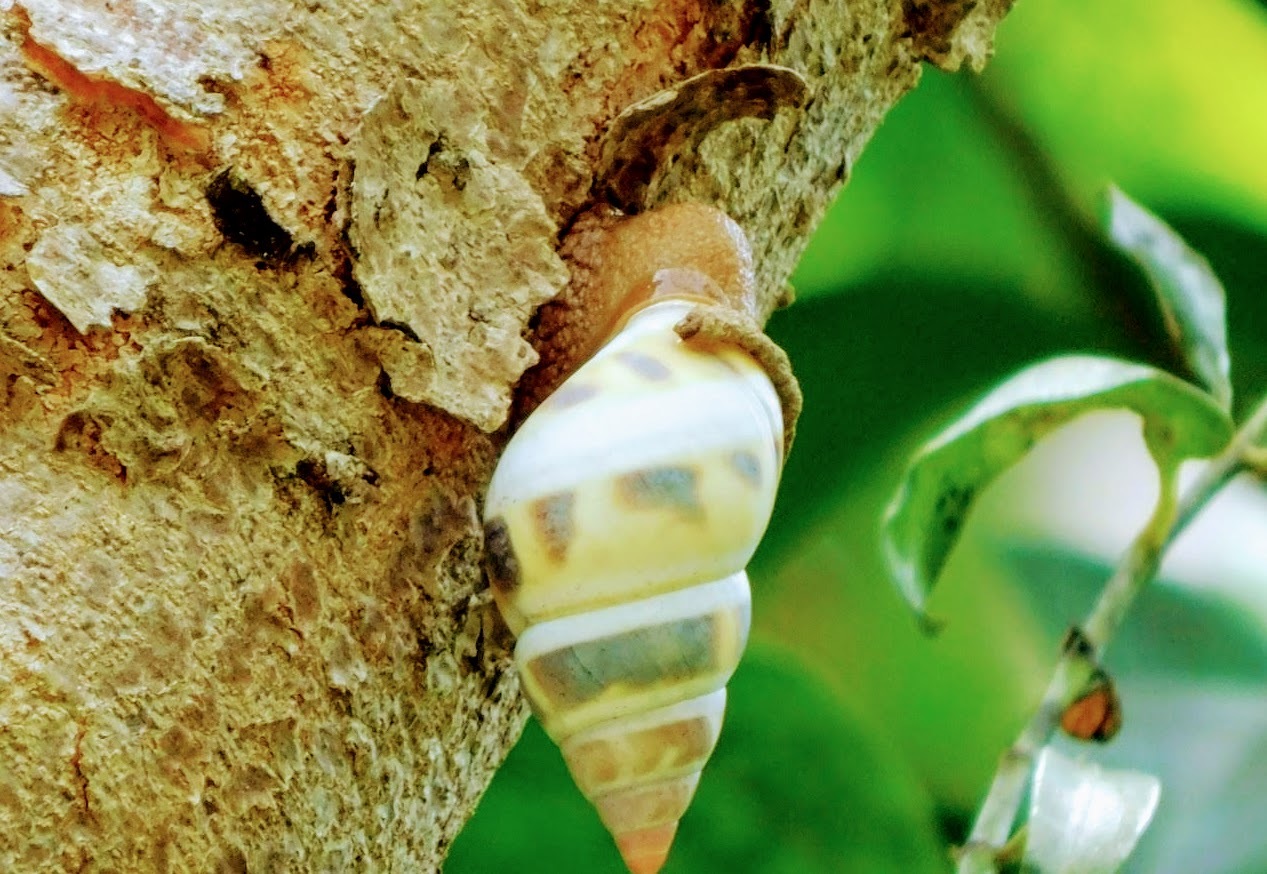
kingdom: Animalia
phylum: Mollusca
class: Gastropoda
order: Stylommatophora
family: Orthalicidae
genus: Orthalicus
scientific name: Orthalicus floridensis
